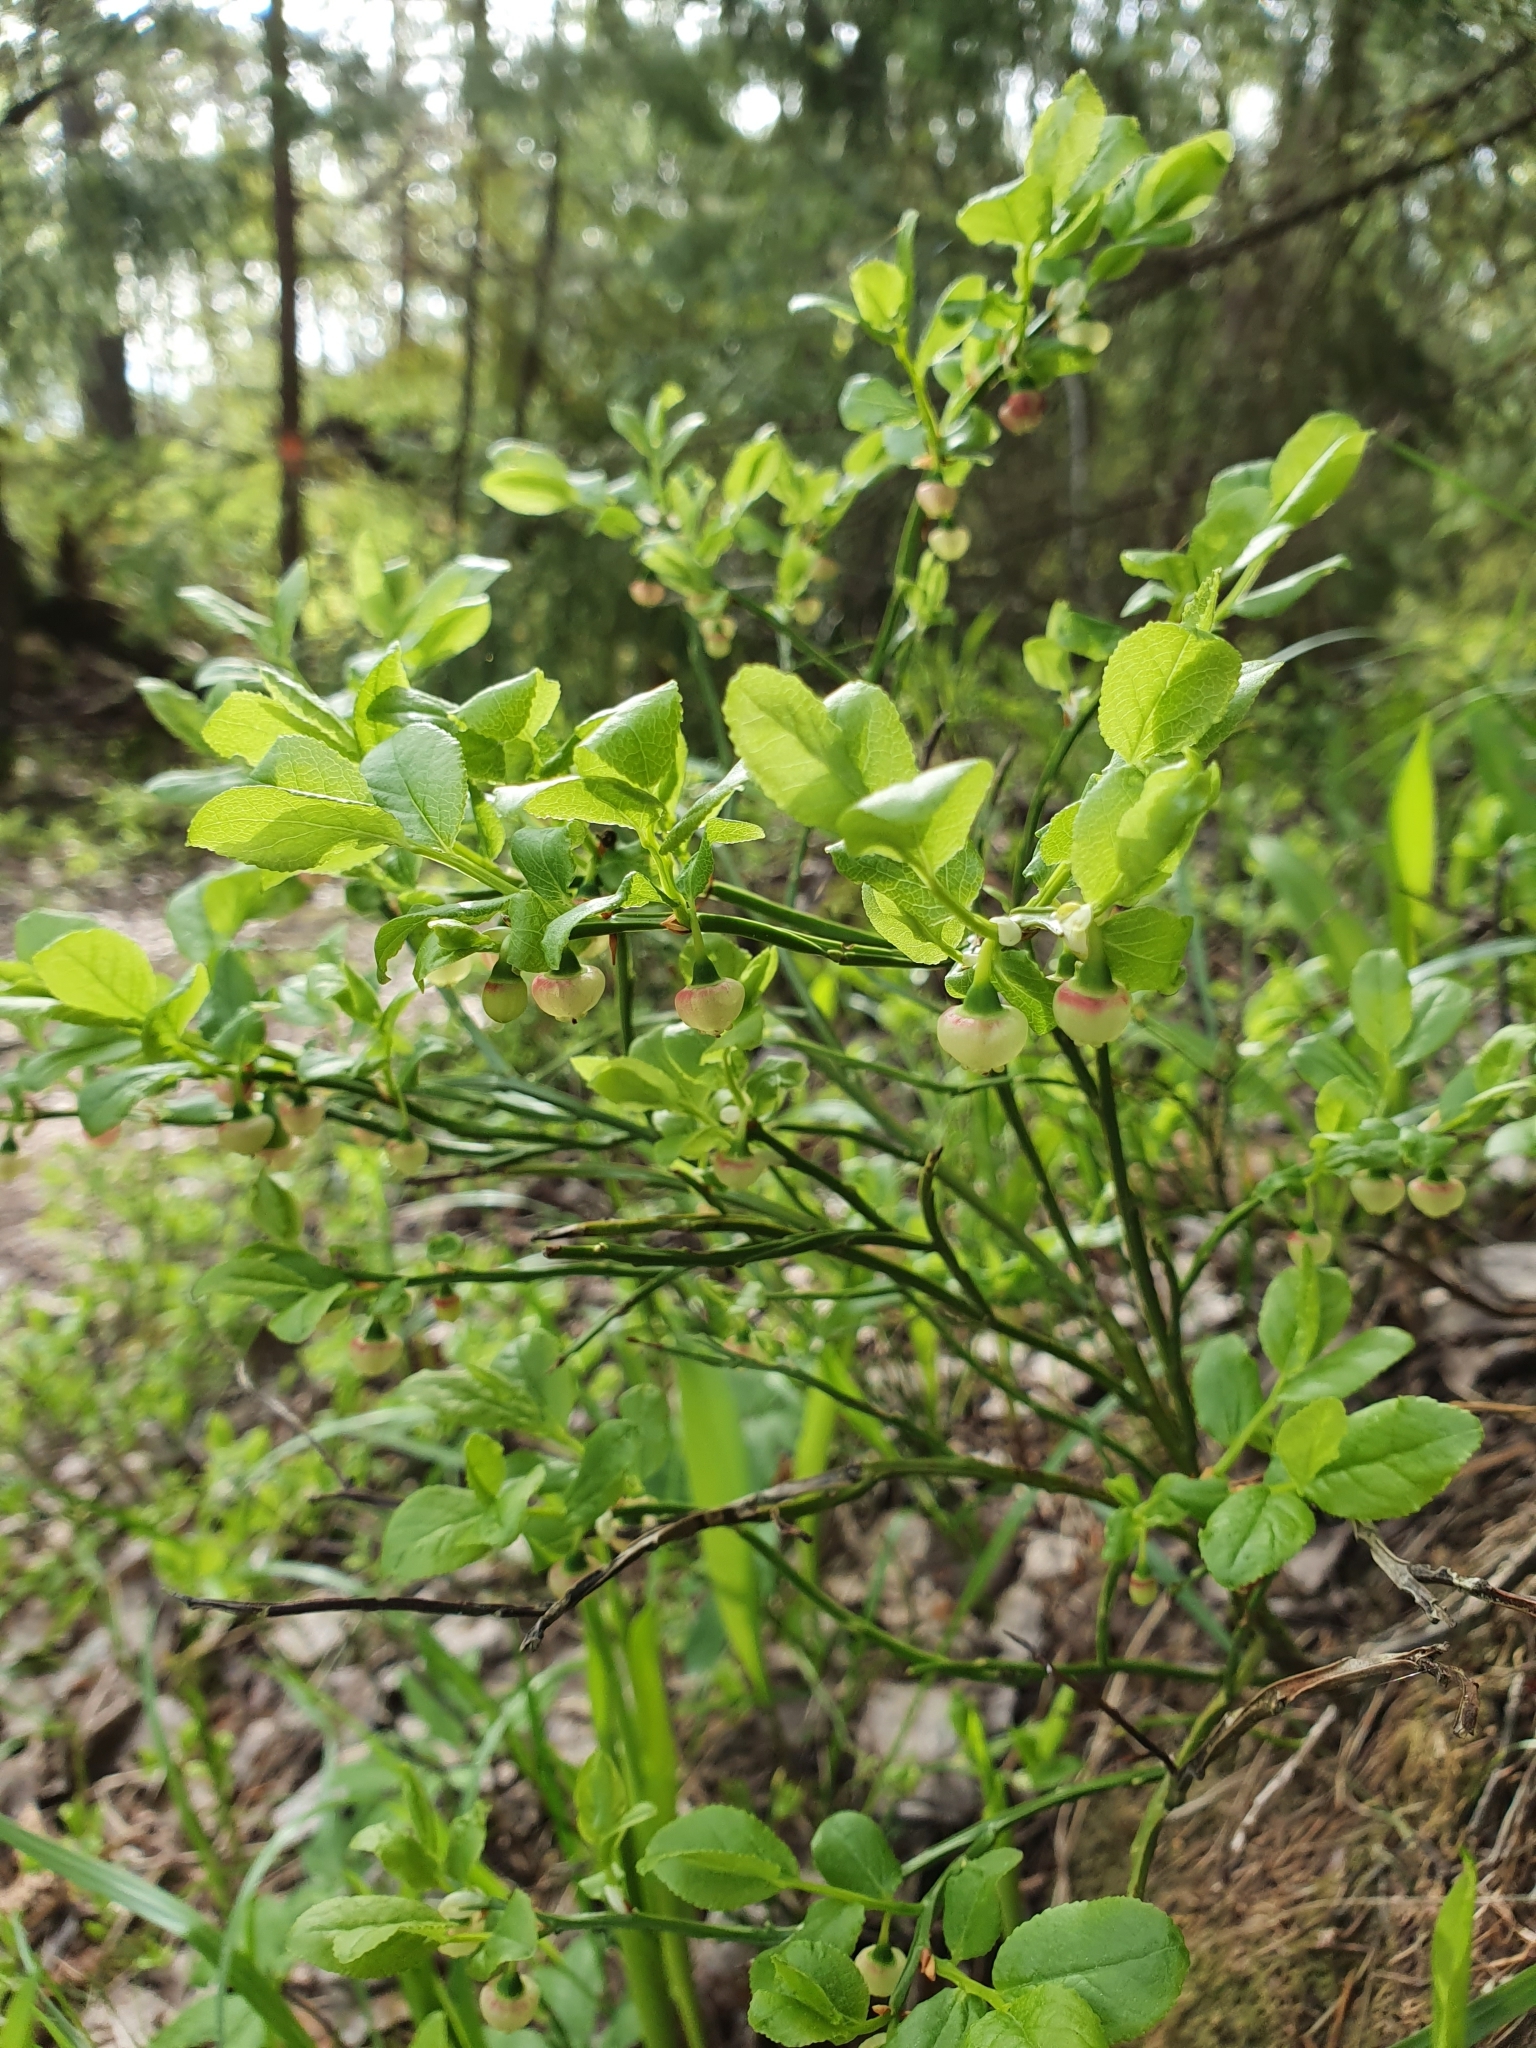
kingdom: Plantae
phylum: Tracheophyta
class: Magnoliopsida
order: Ericales
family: Ericaceae
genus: Vaccinium
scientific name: Vaccinium myrtillus
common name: Bilberry
